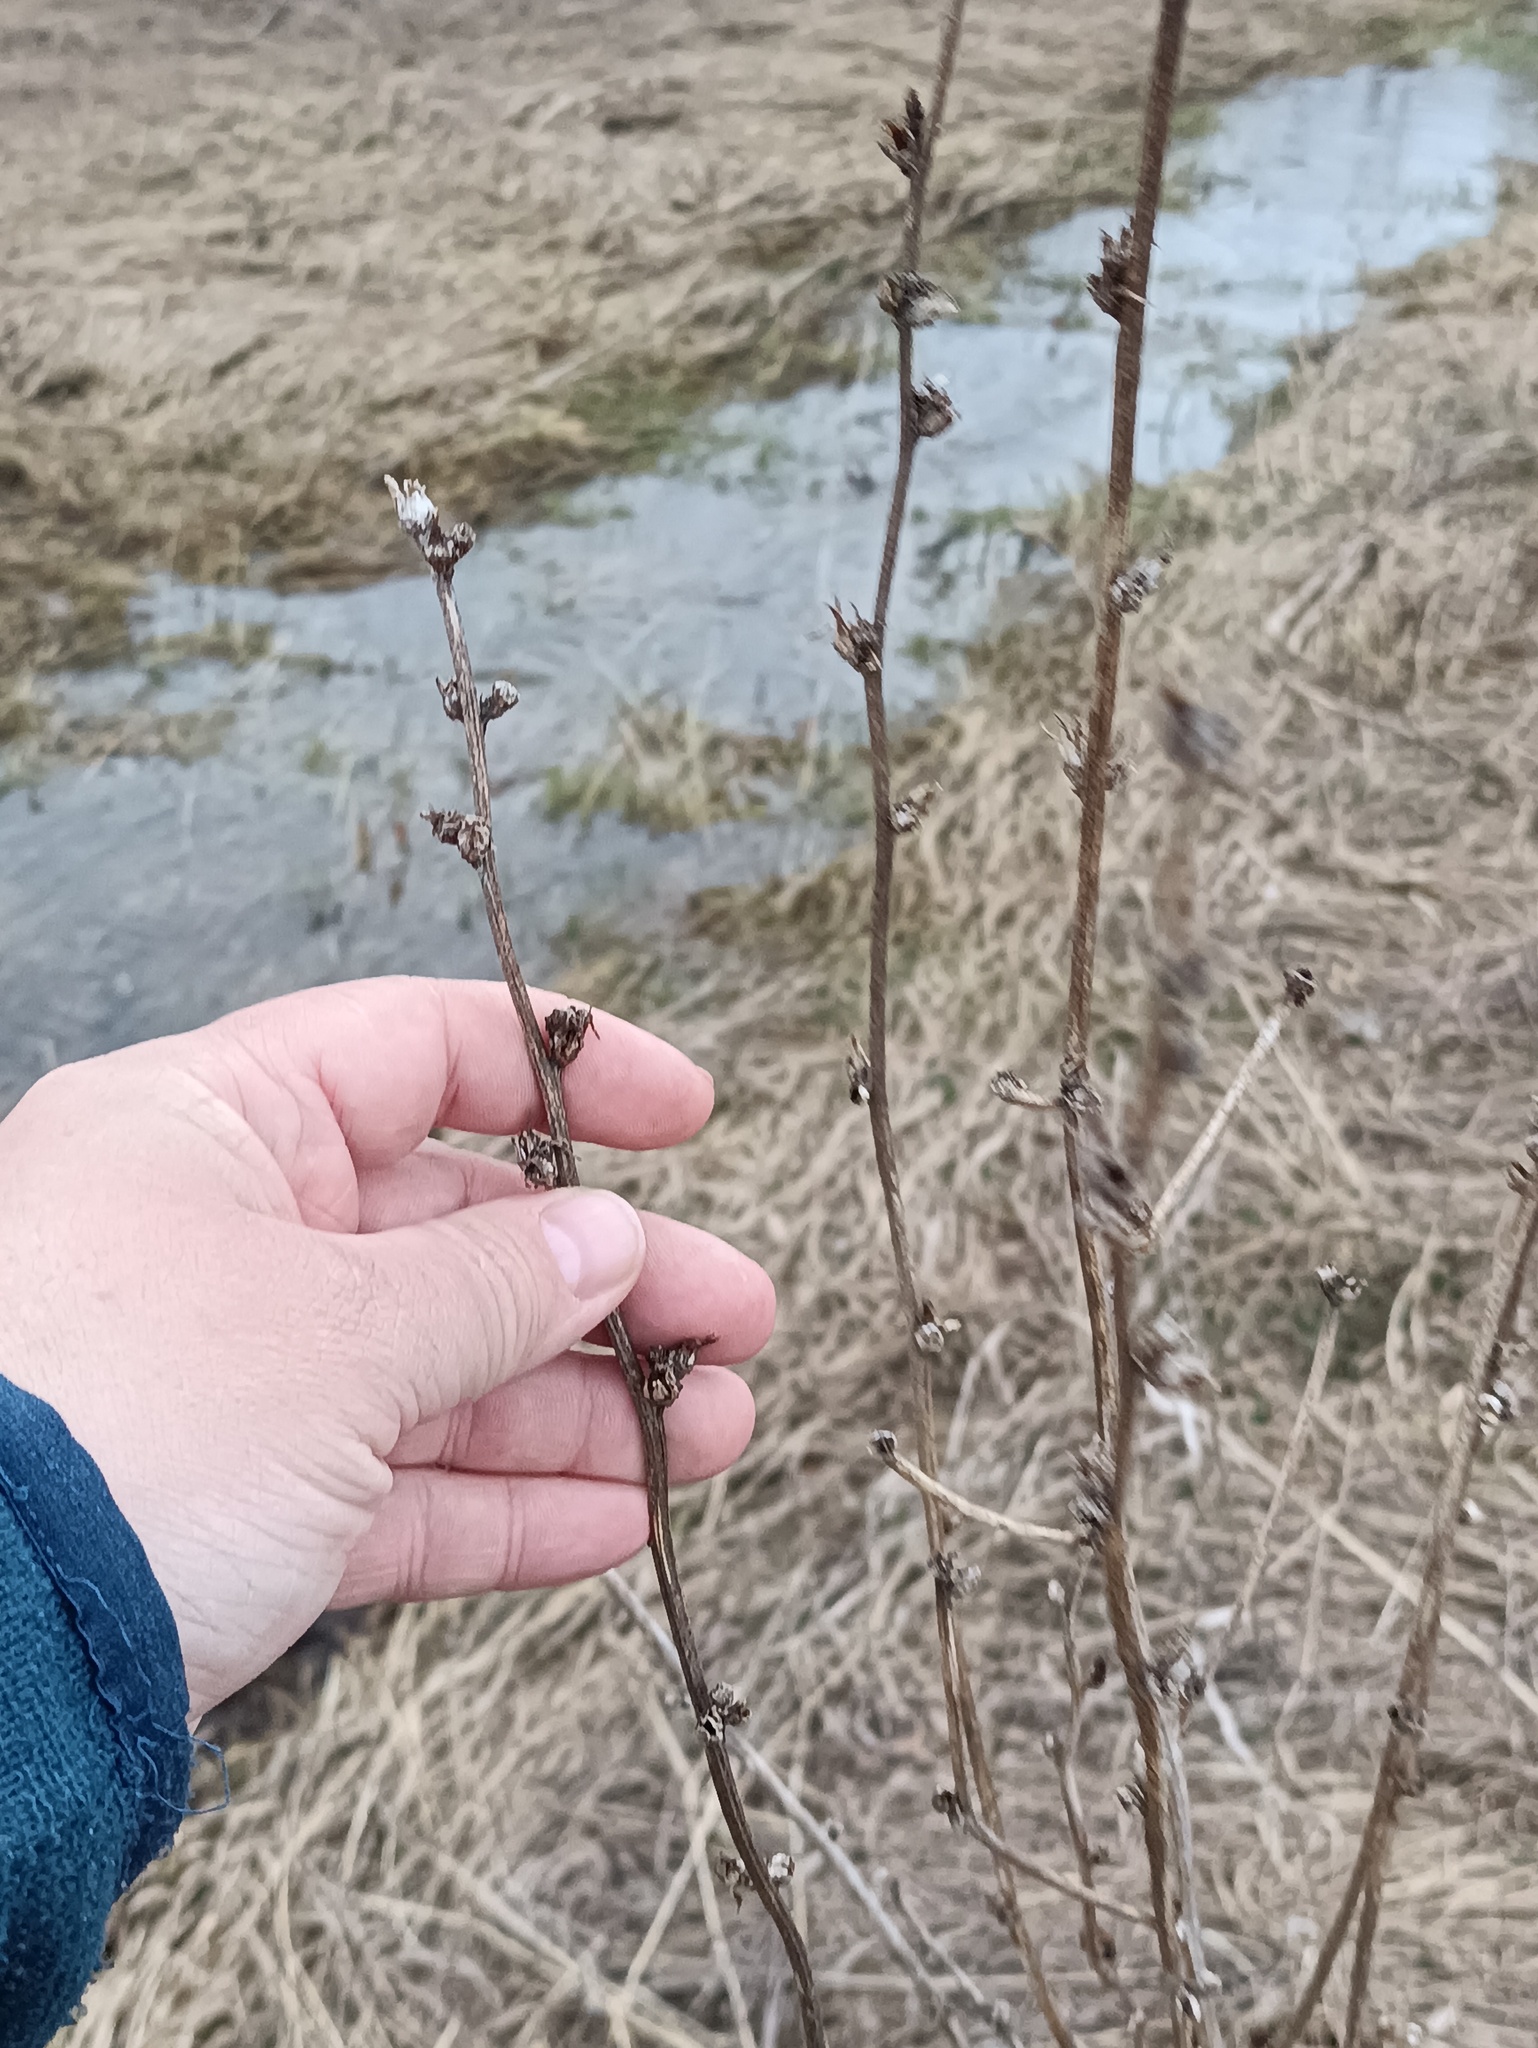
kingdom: Plantae
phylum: Tracheophyta
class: Magnoliopsida
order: Asterales
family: Asteraceae
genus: Cichorium
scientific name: Cichorium intybus
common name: Chicory
